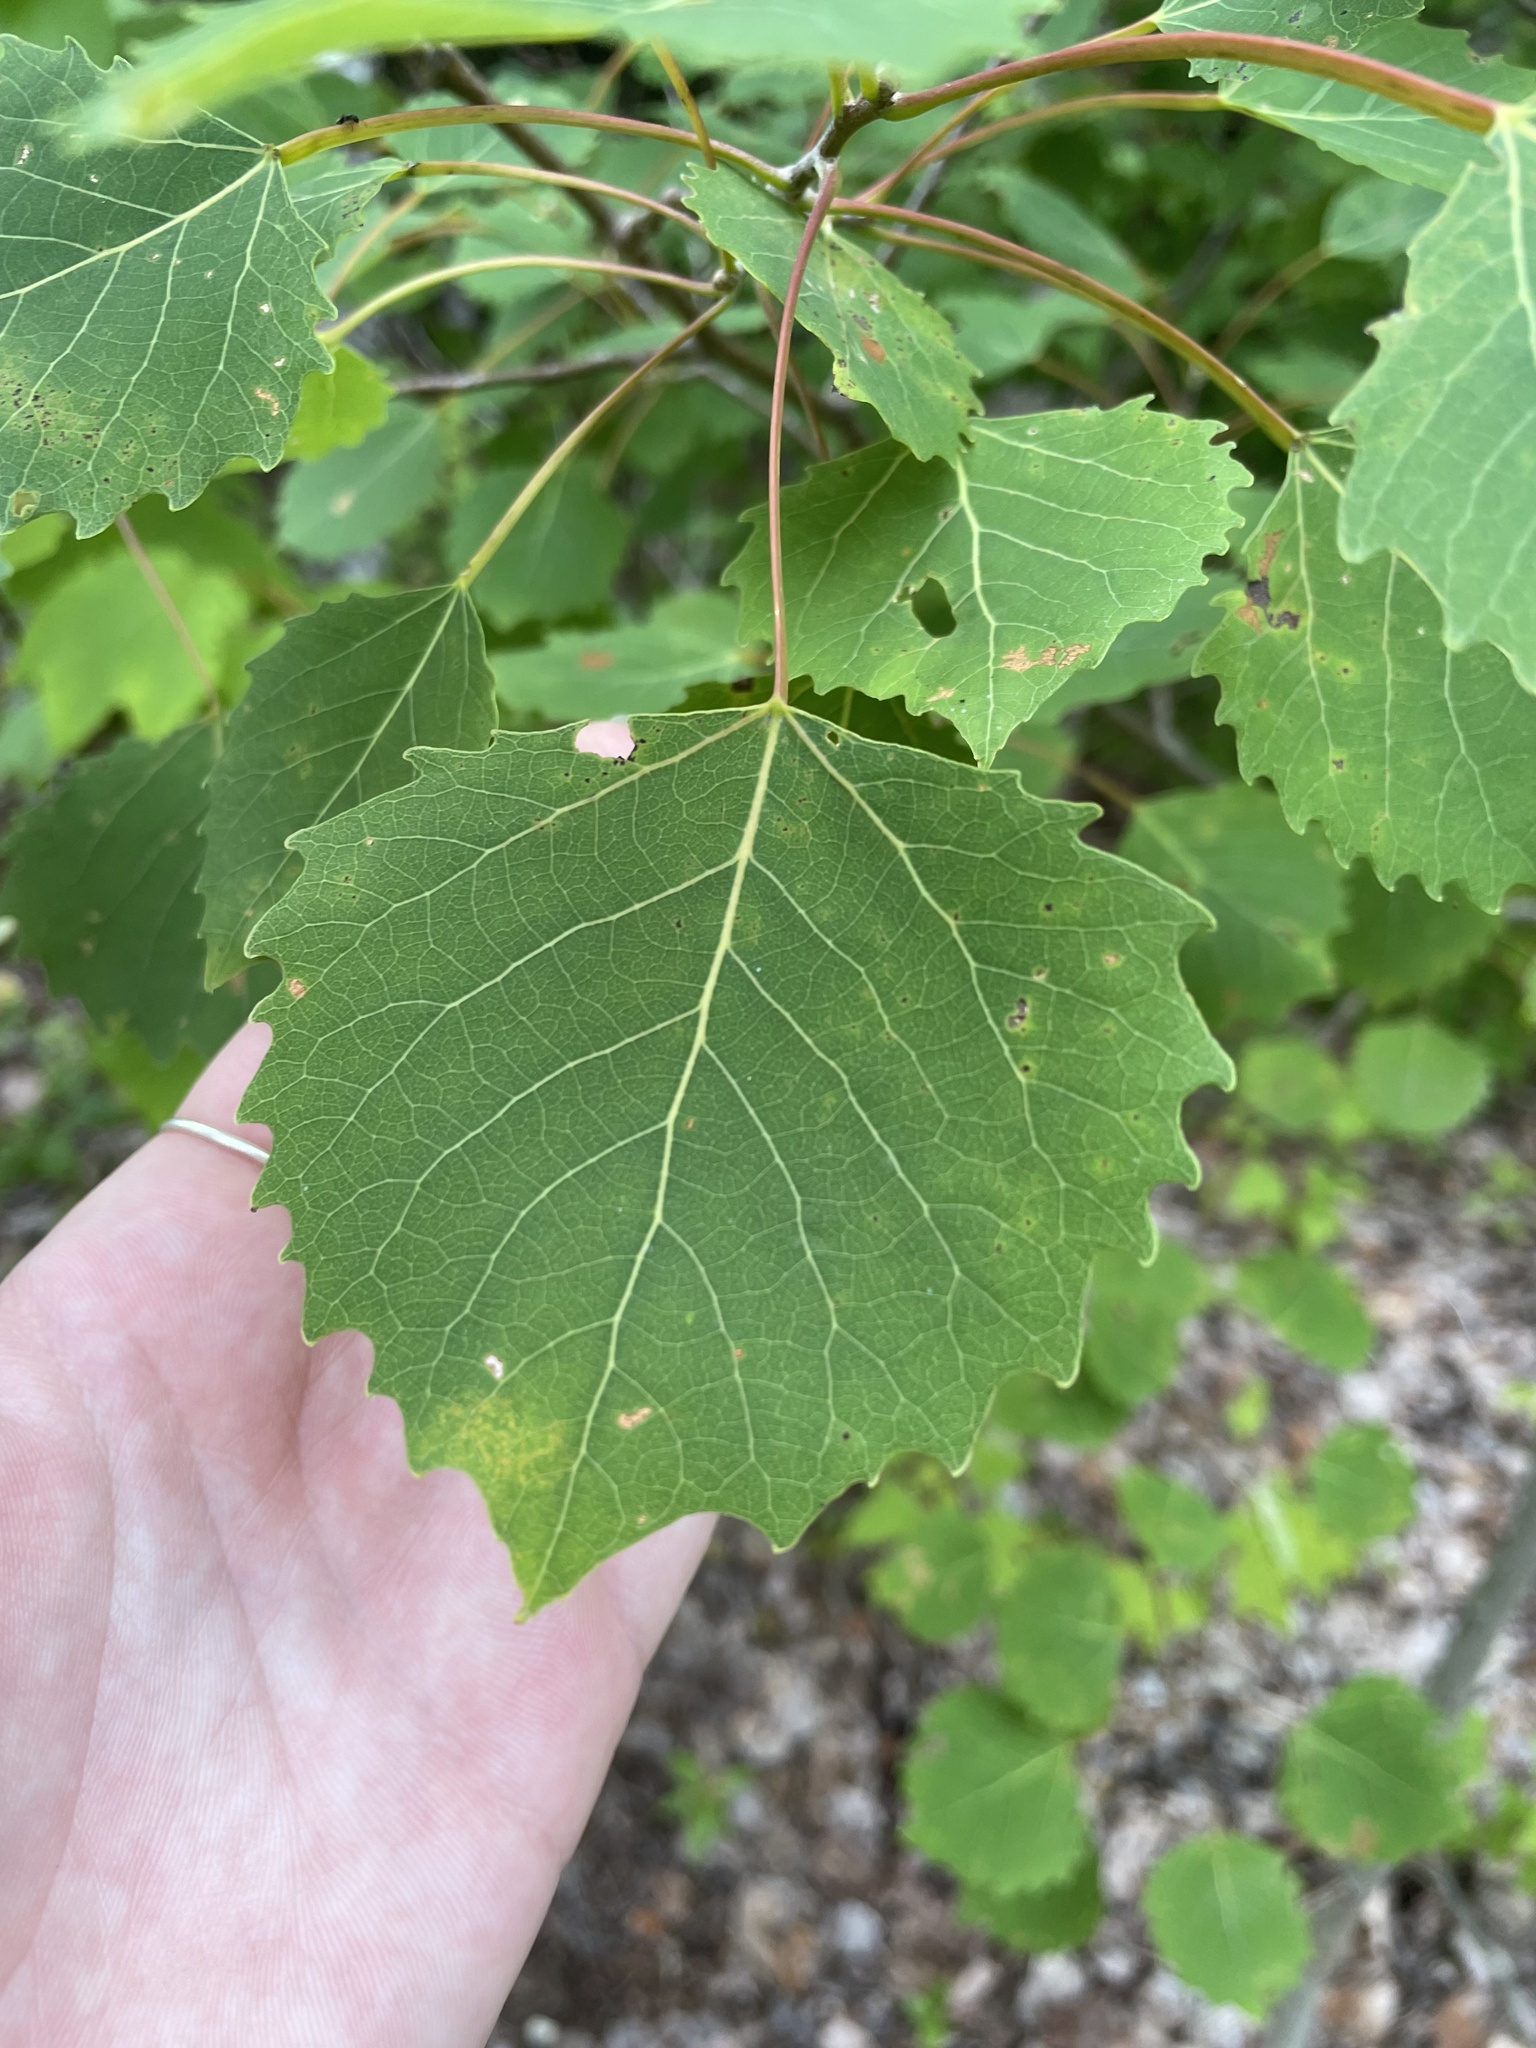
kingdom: Plantae
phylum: Tracheophyta
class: Magnoliopsida
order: Malpighiales
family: Salicaceae
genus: Populus
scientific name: Populus grandidentata
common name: Bigtooth aspen
